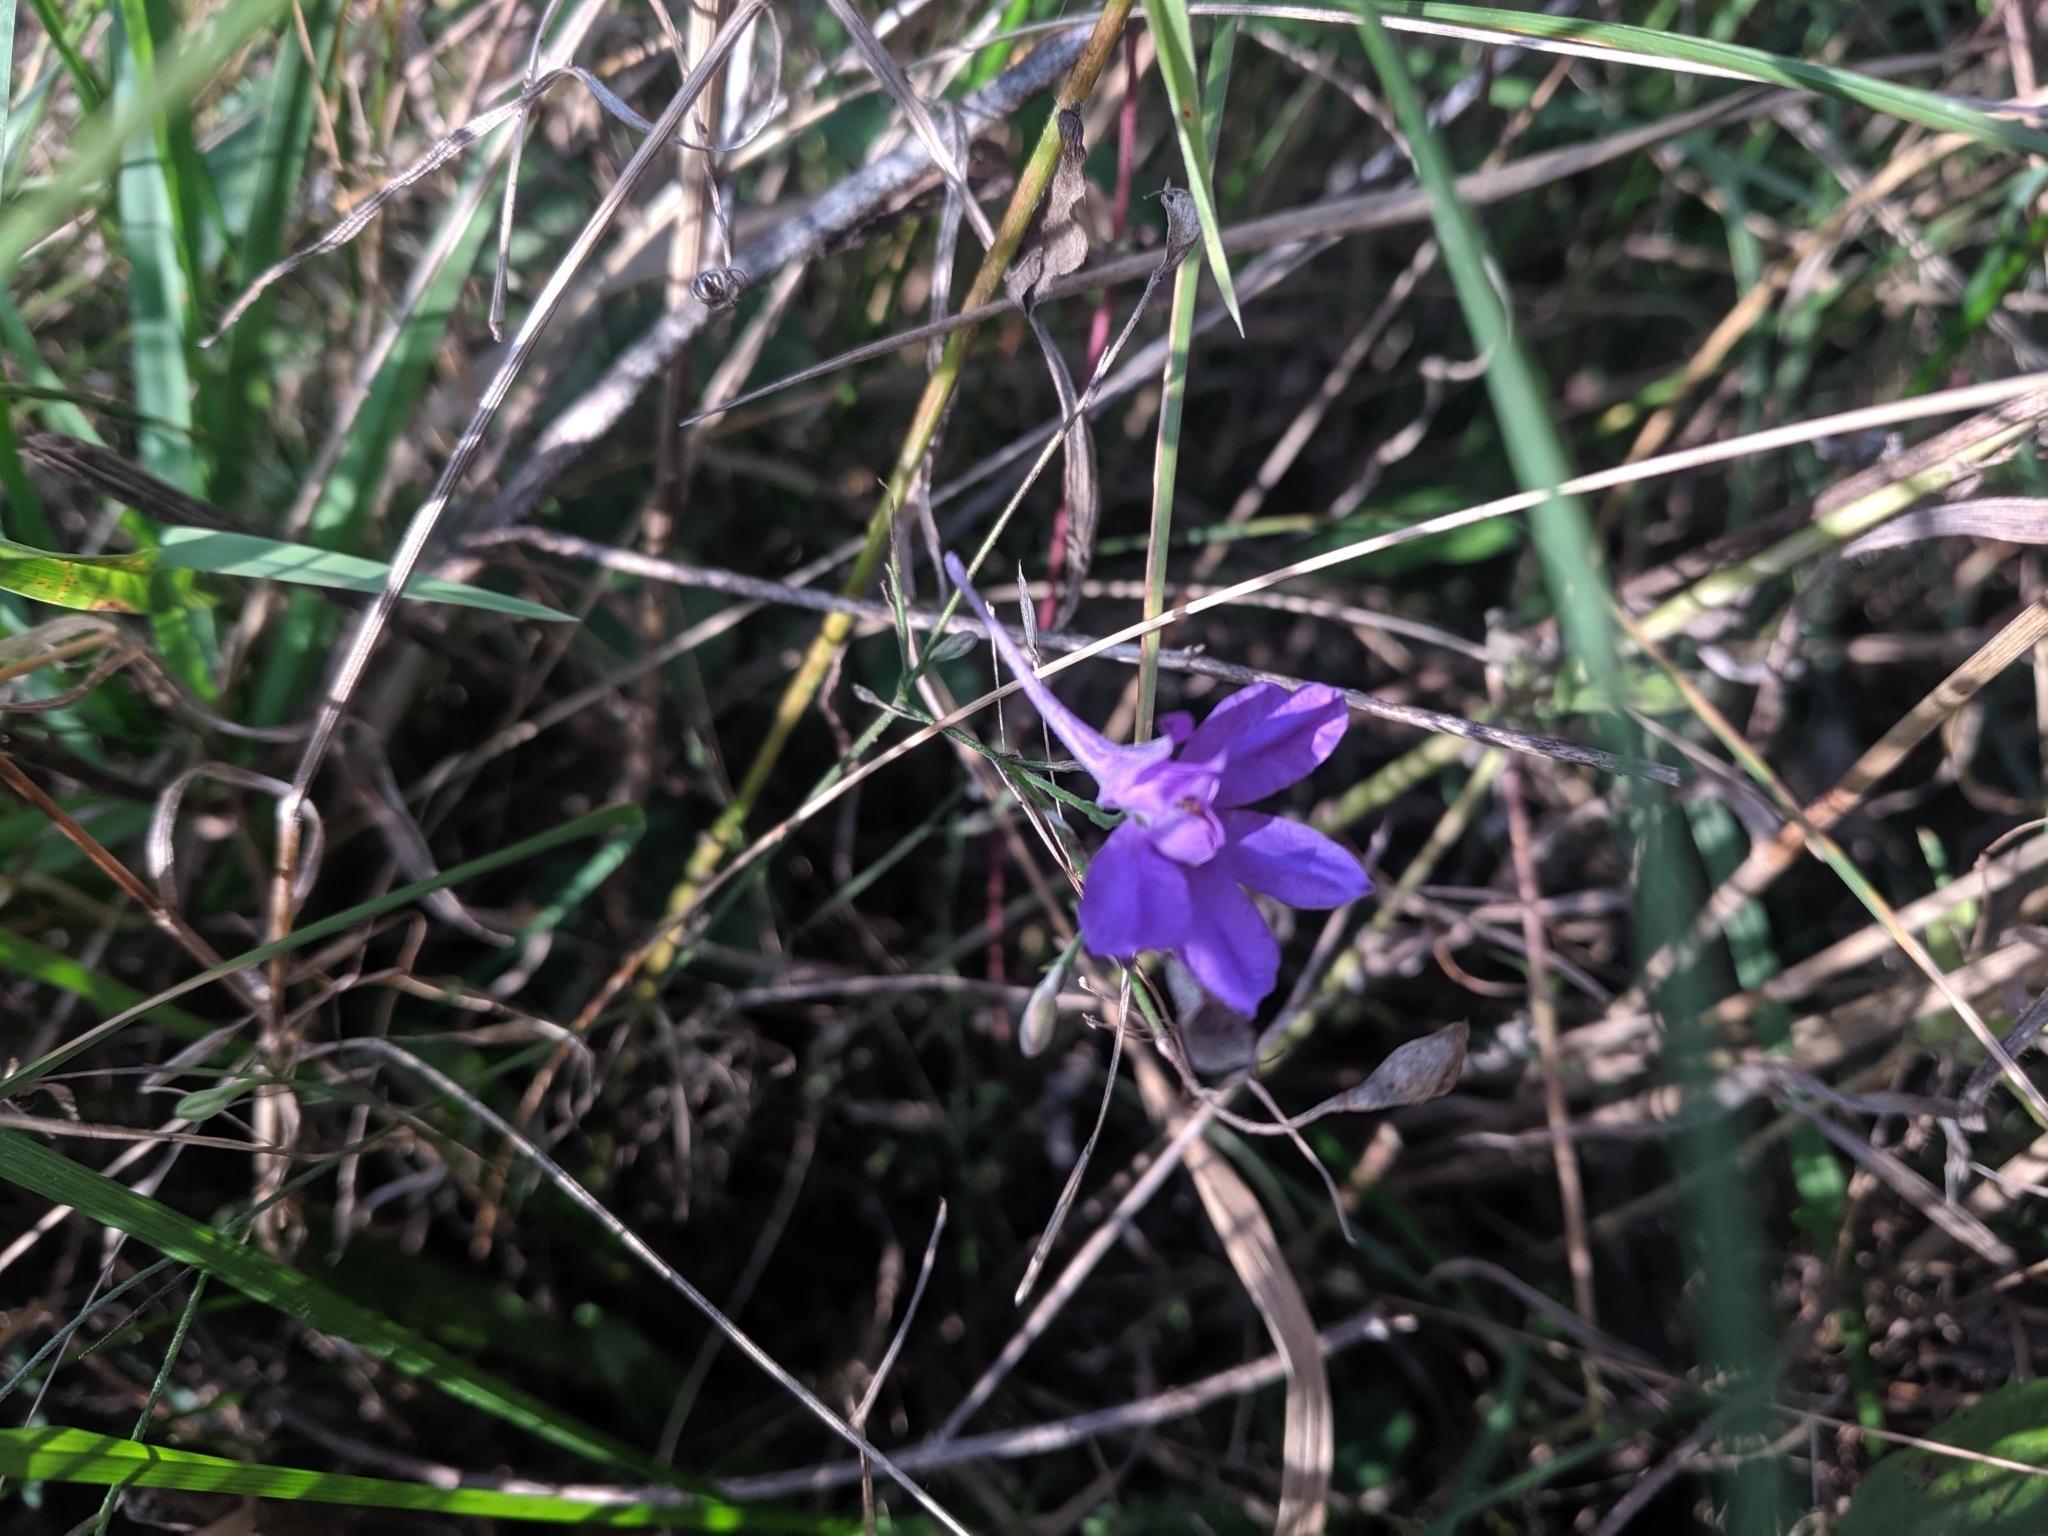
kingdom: Plantae
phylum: Tracheophyta
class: Magnoliopsida
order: Ranunculales
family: Ranunculaceae
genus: Delphinium
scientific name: Delphinium consolida
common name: Branching larkspur
